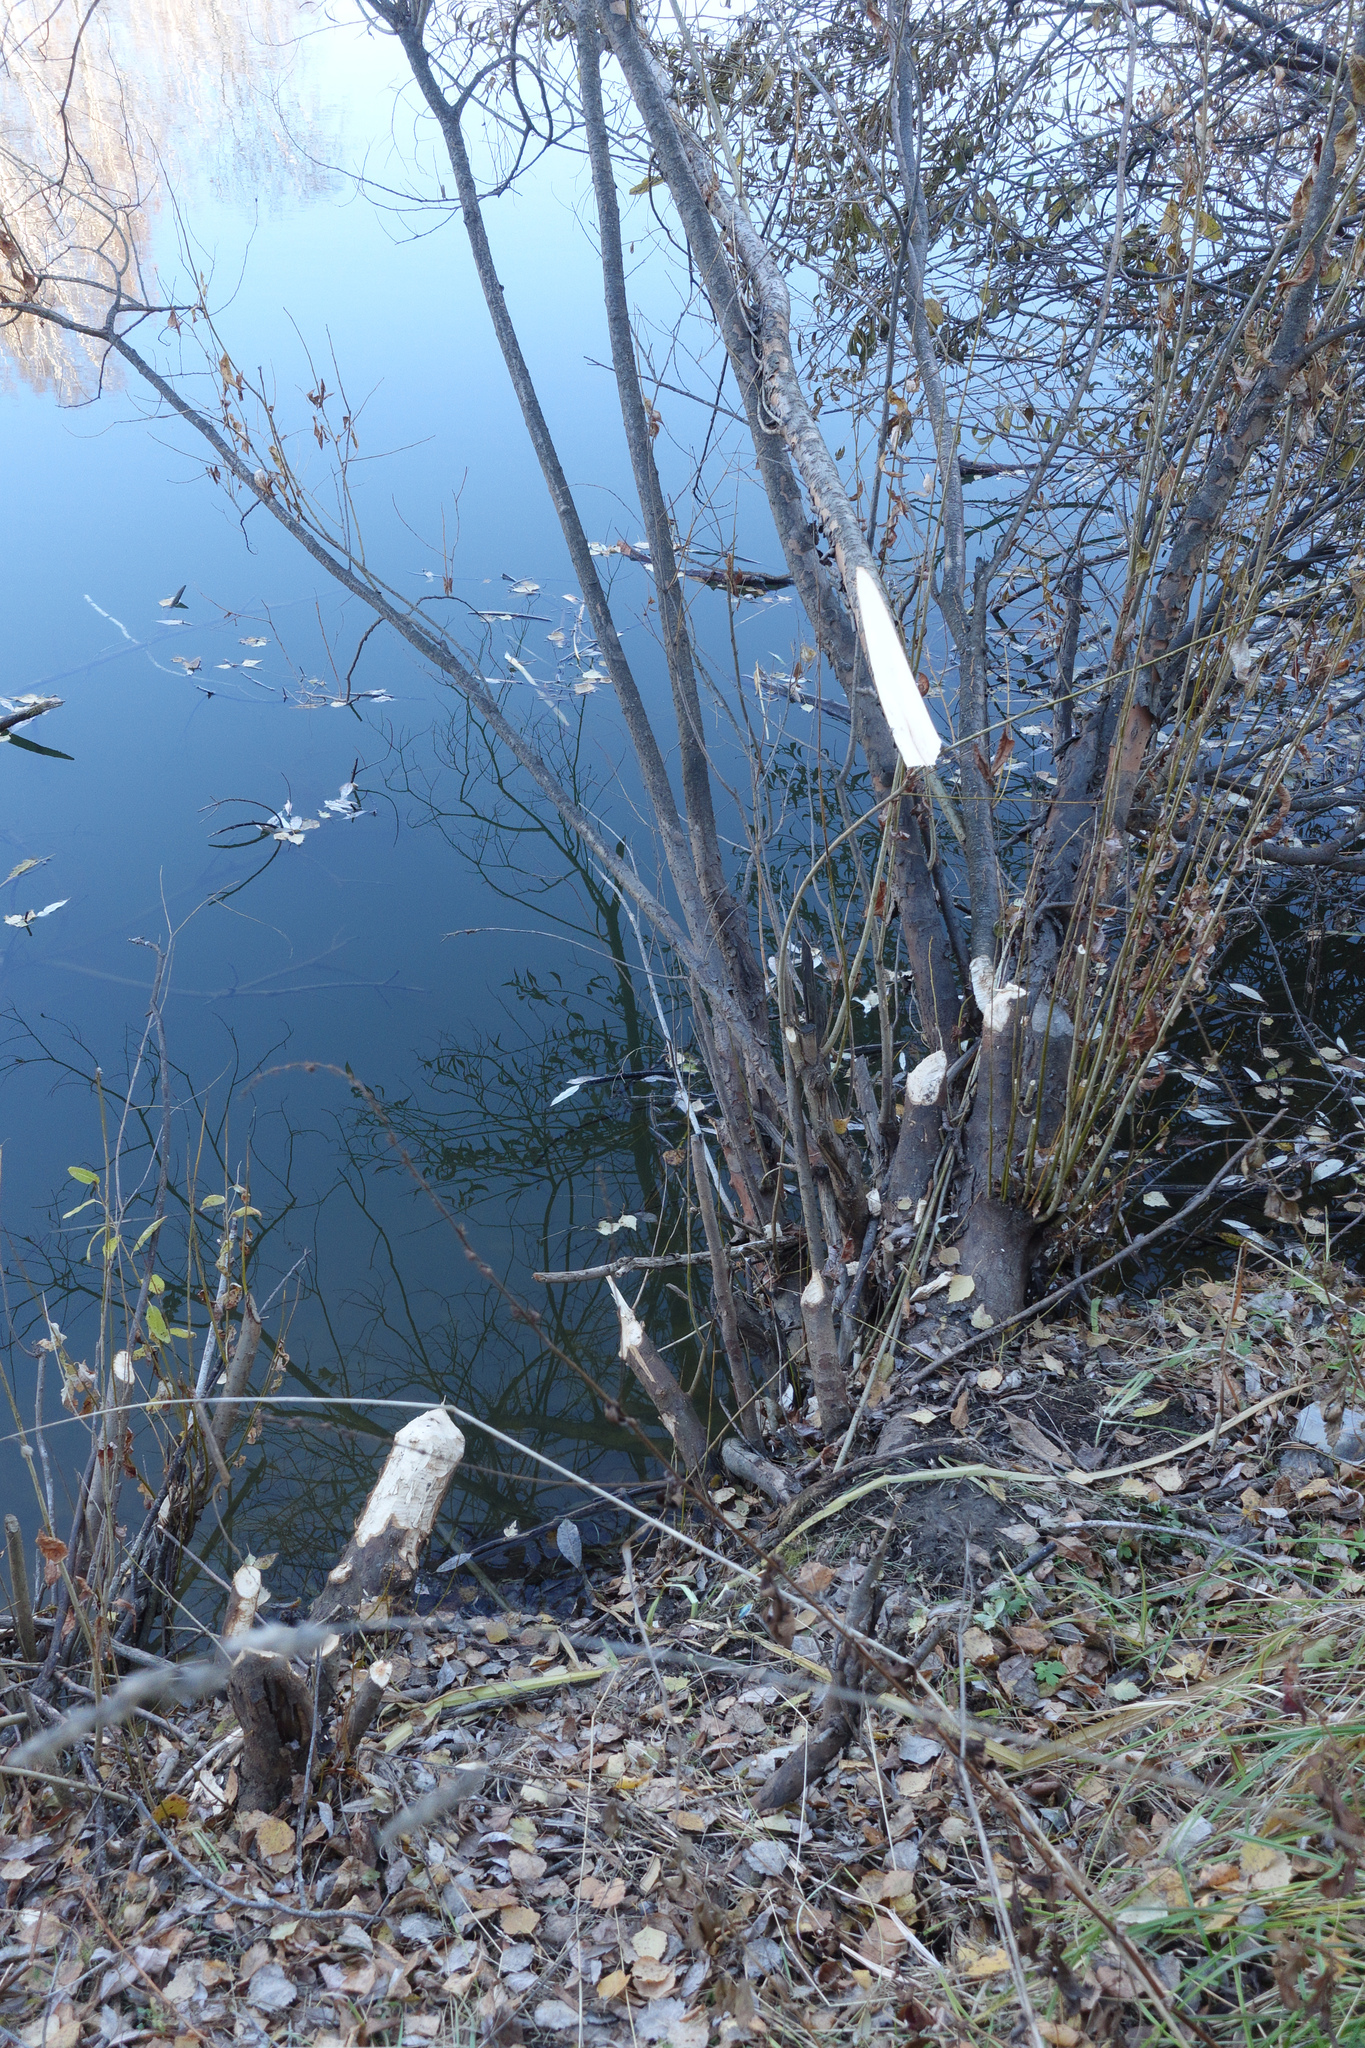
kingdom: Animalia
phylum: Chordata
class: Mammalia
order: Rodentia
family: Castoridae
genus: Castor
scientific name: Castor fiber
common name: Eurasian beaver
